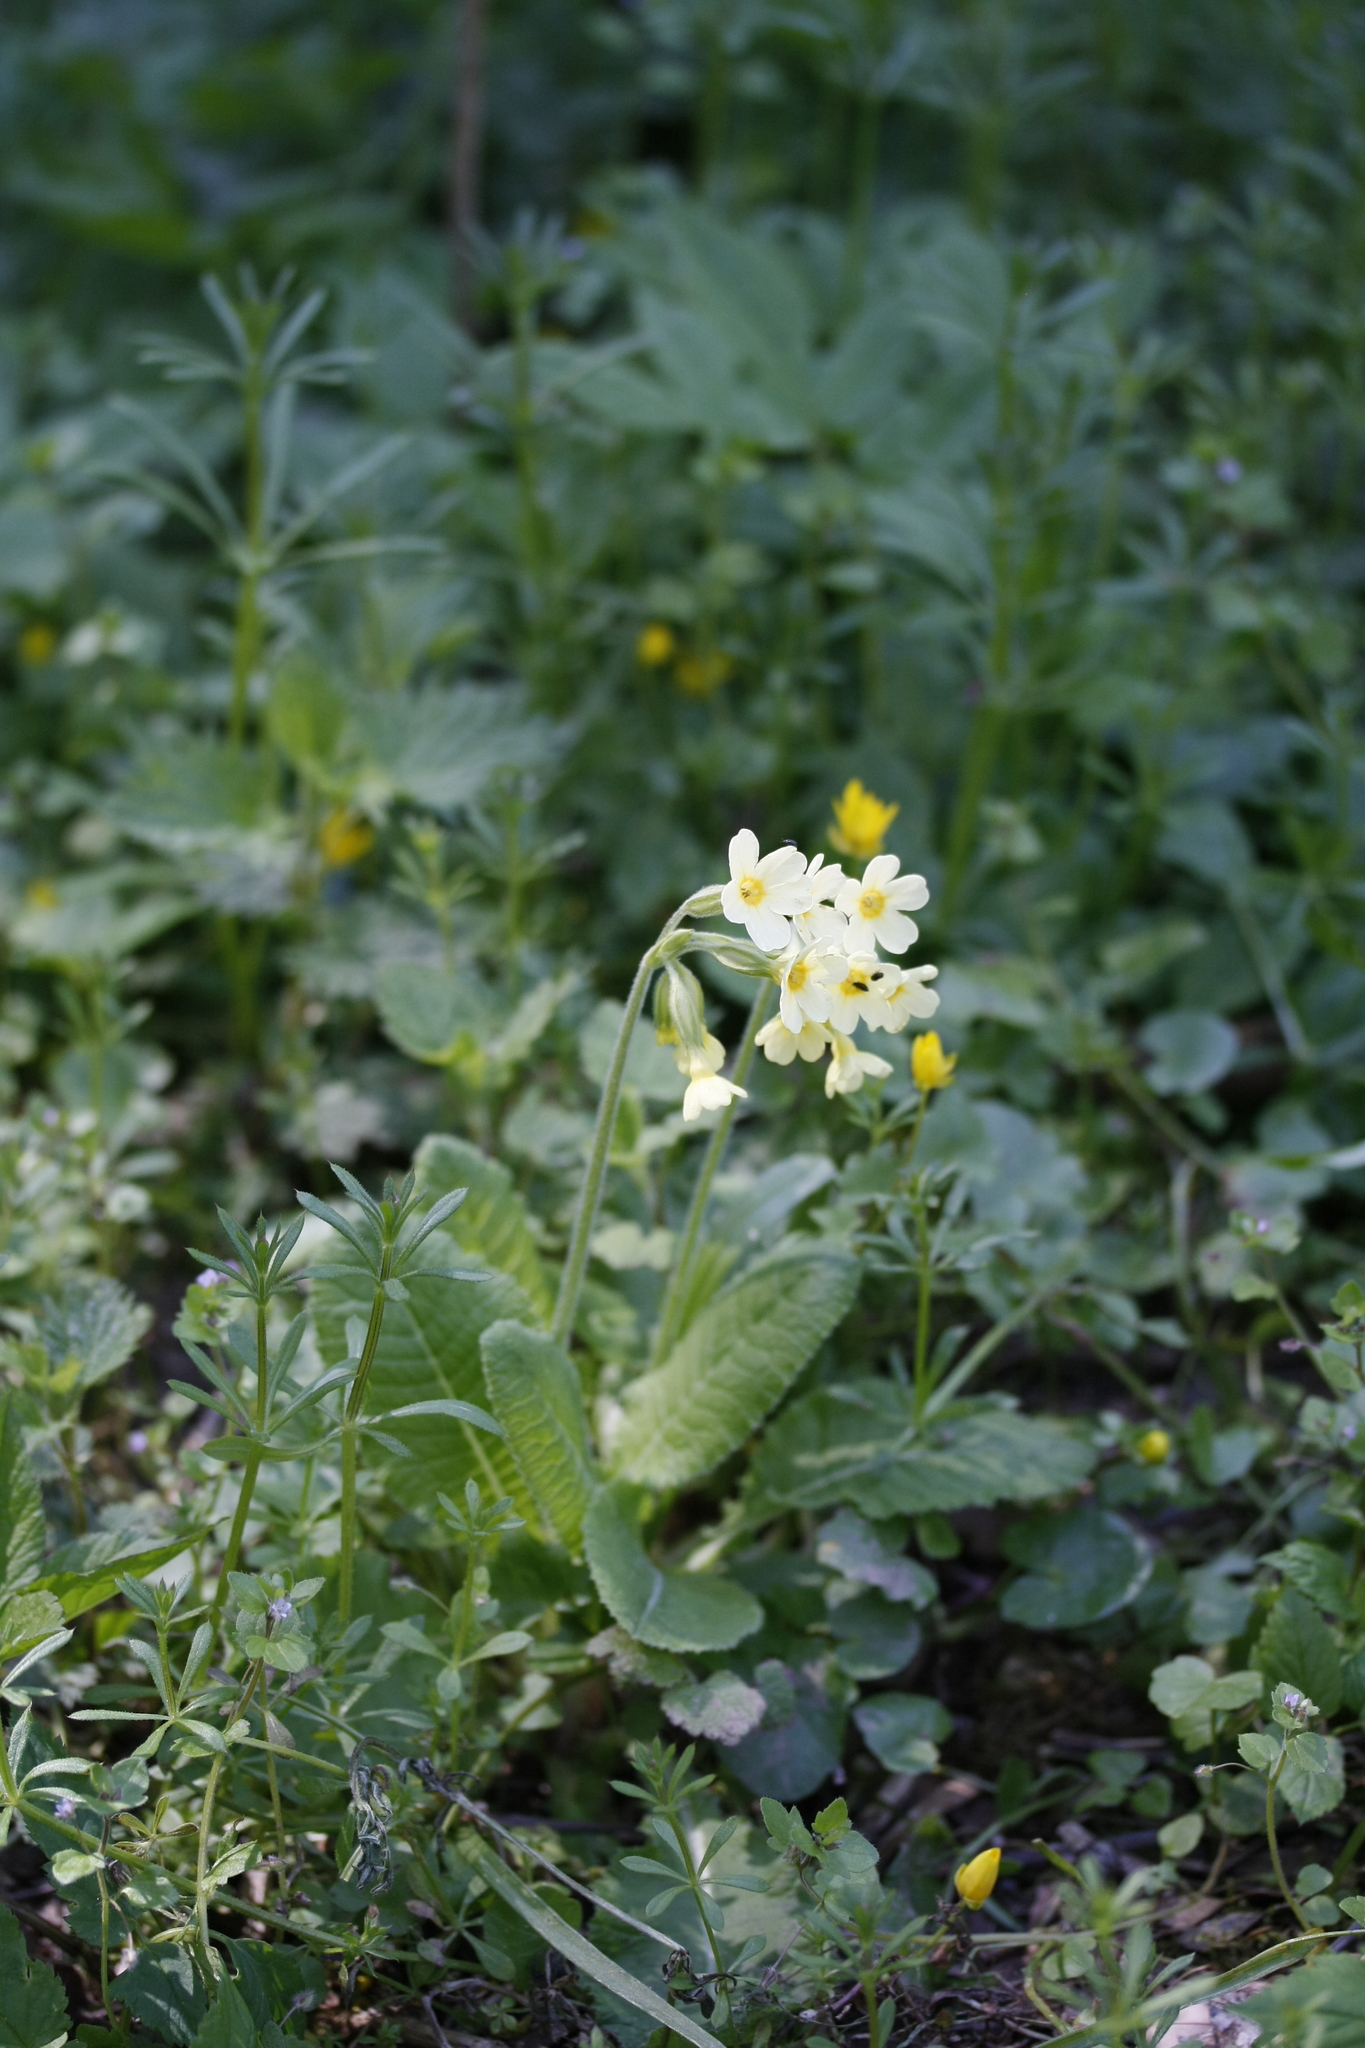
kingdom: Plantae
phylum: Tracheophyta
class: Magnoliopsida
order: Ericales
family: Primulaceae
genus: Primula
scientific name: Primula elatior
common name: Oxlip
